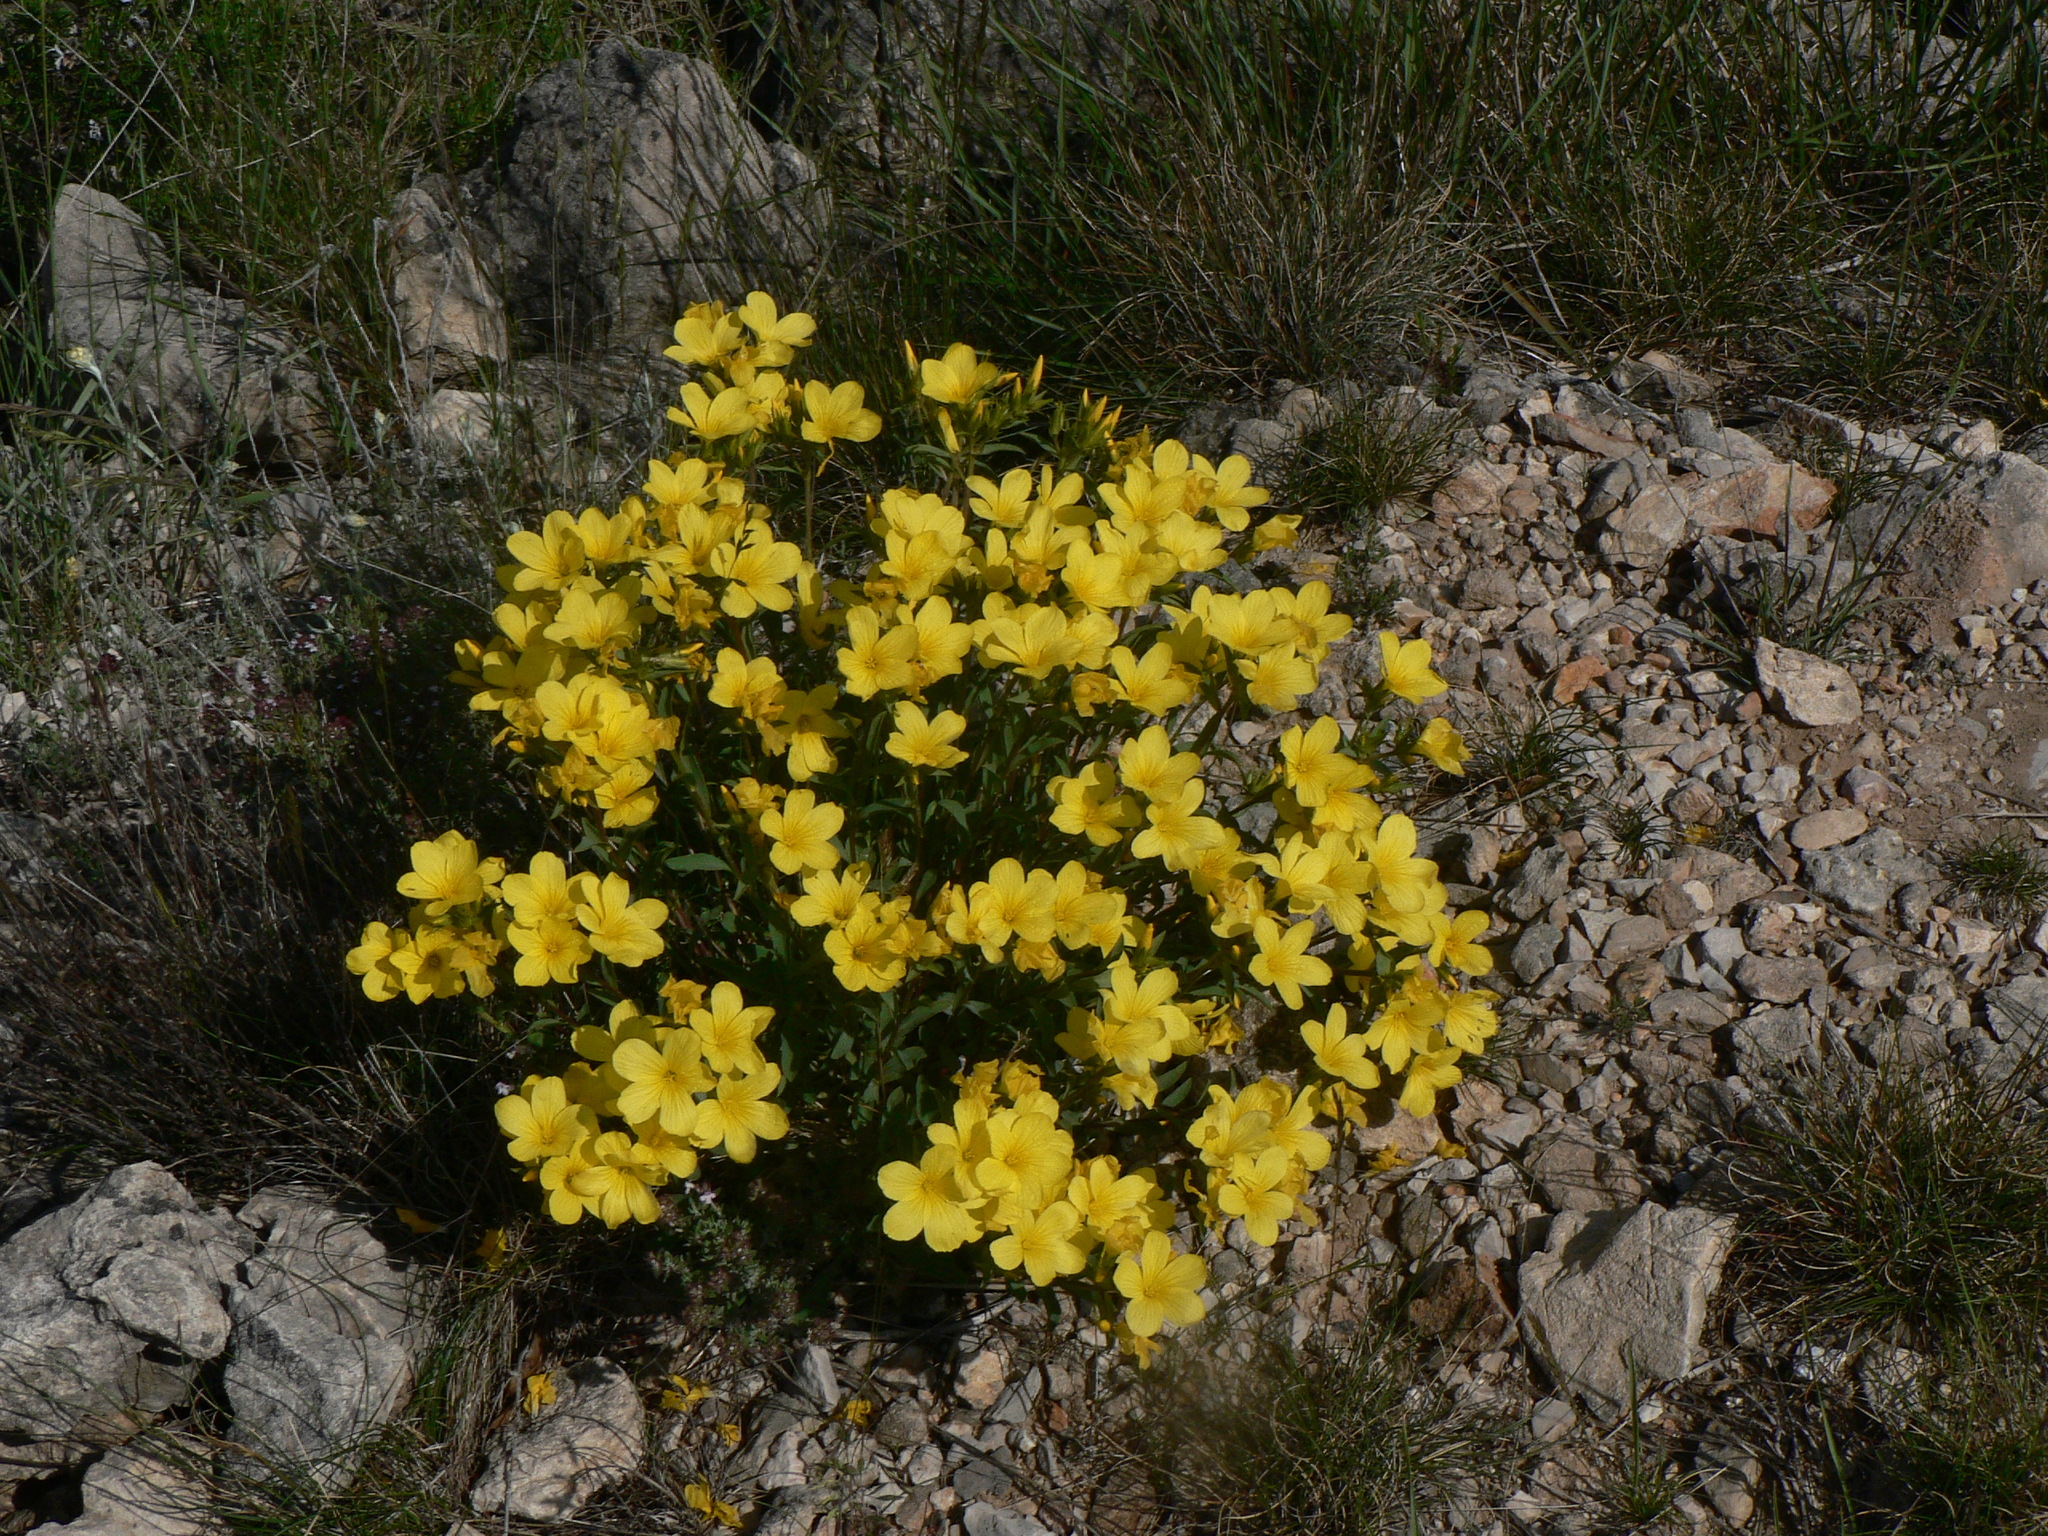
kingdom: Plantae
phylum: Tracheophyta
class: Magnoliopsida
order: Malpighiales
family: Linaceae
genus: Linum
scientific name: Linum campanulatum
